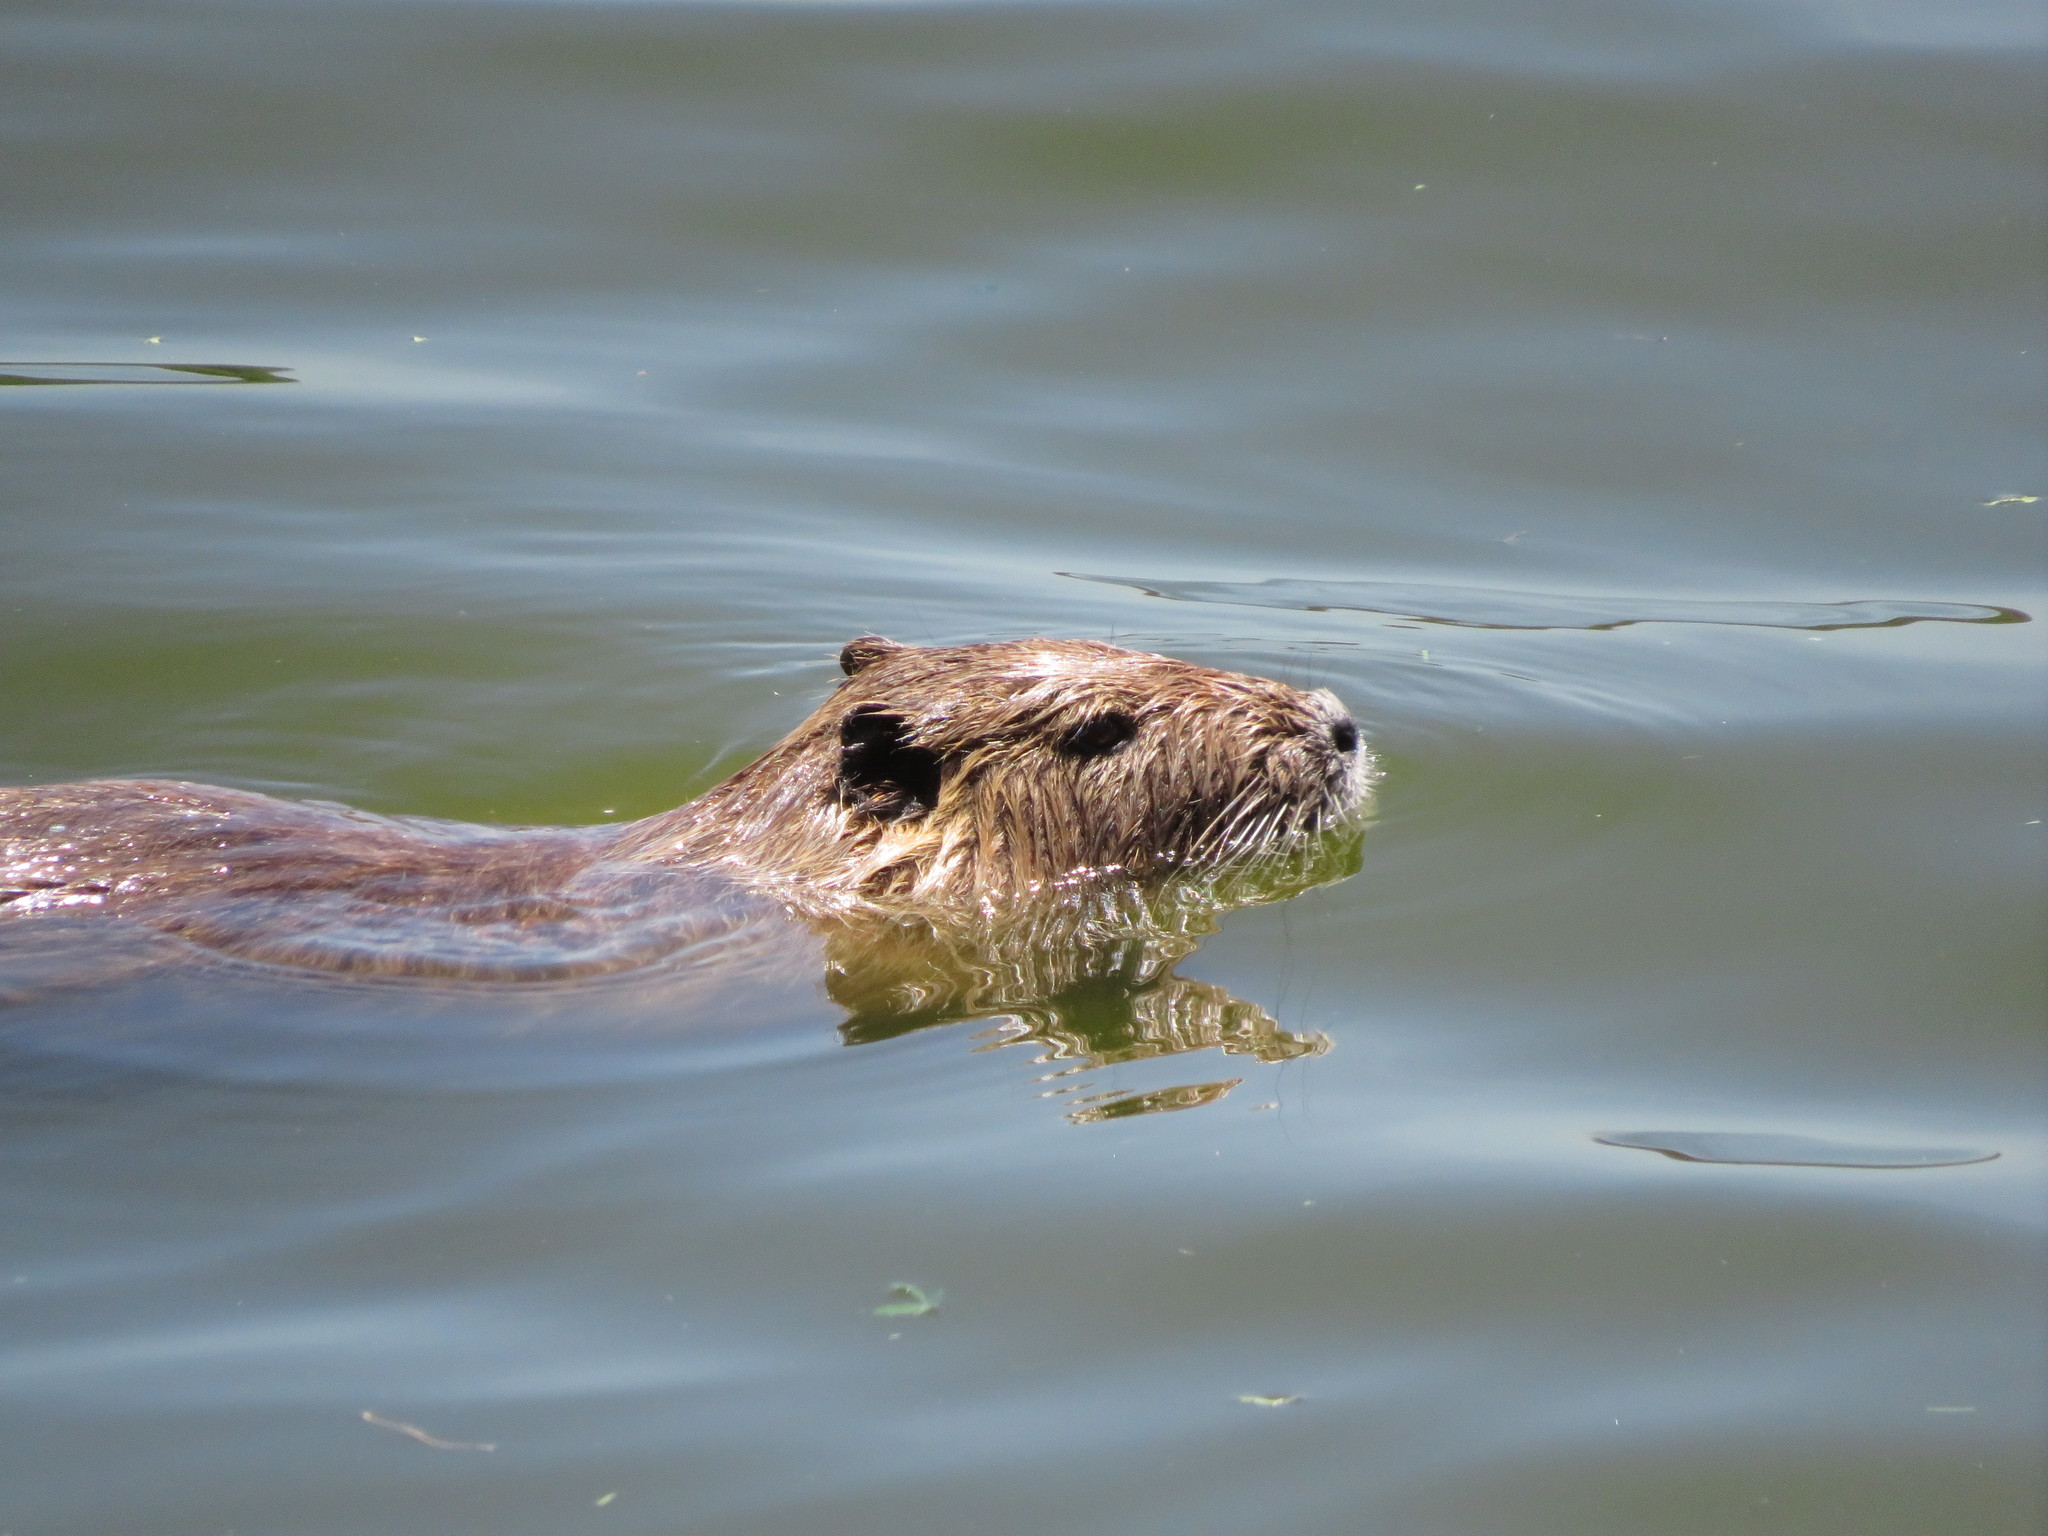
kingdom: Animalia
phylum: Chordata
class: Mammalia
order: Rodentia
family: Myocastoridae
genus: Myocastor
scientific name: Myocastor coypus
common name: Coypu
